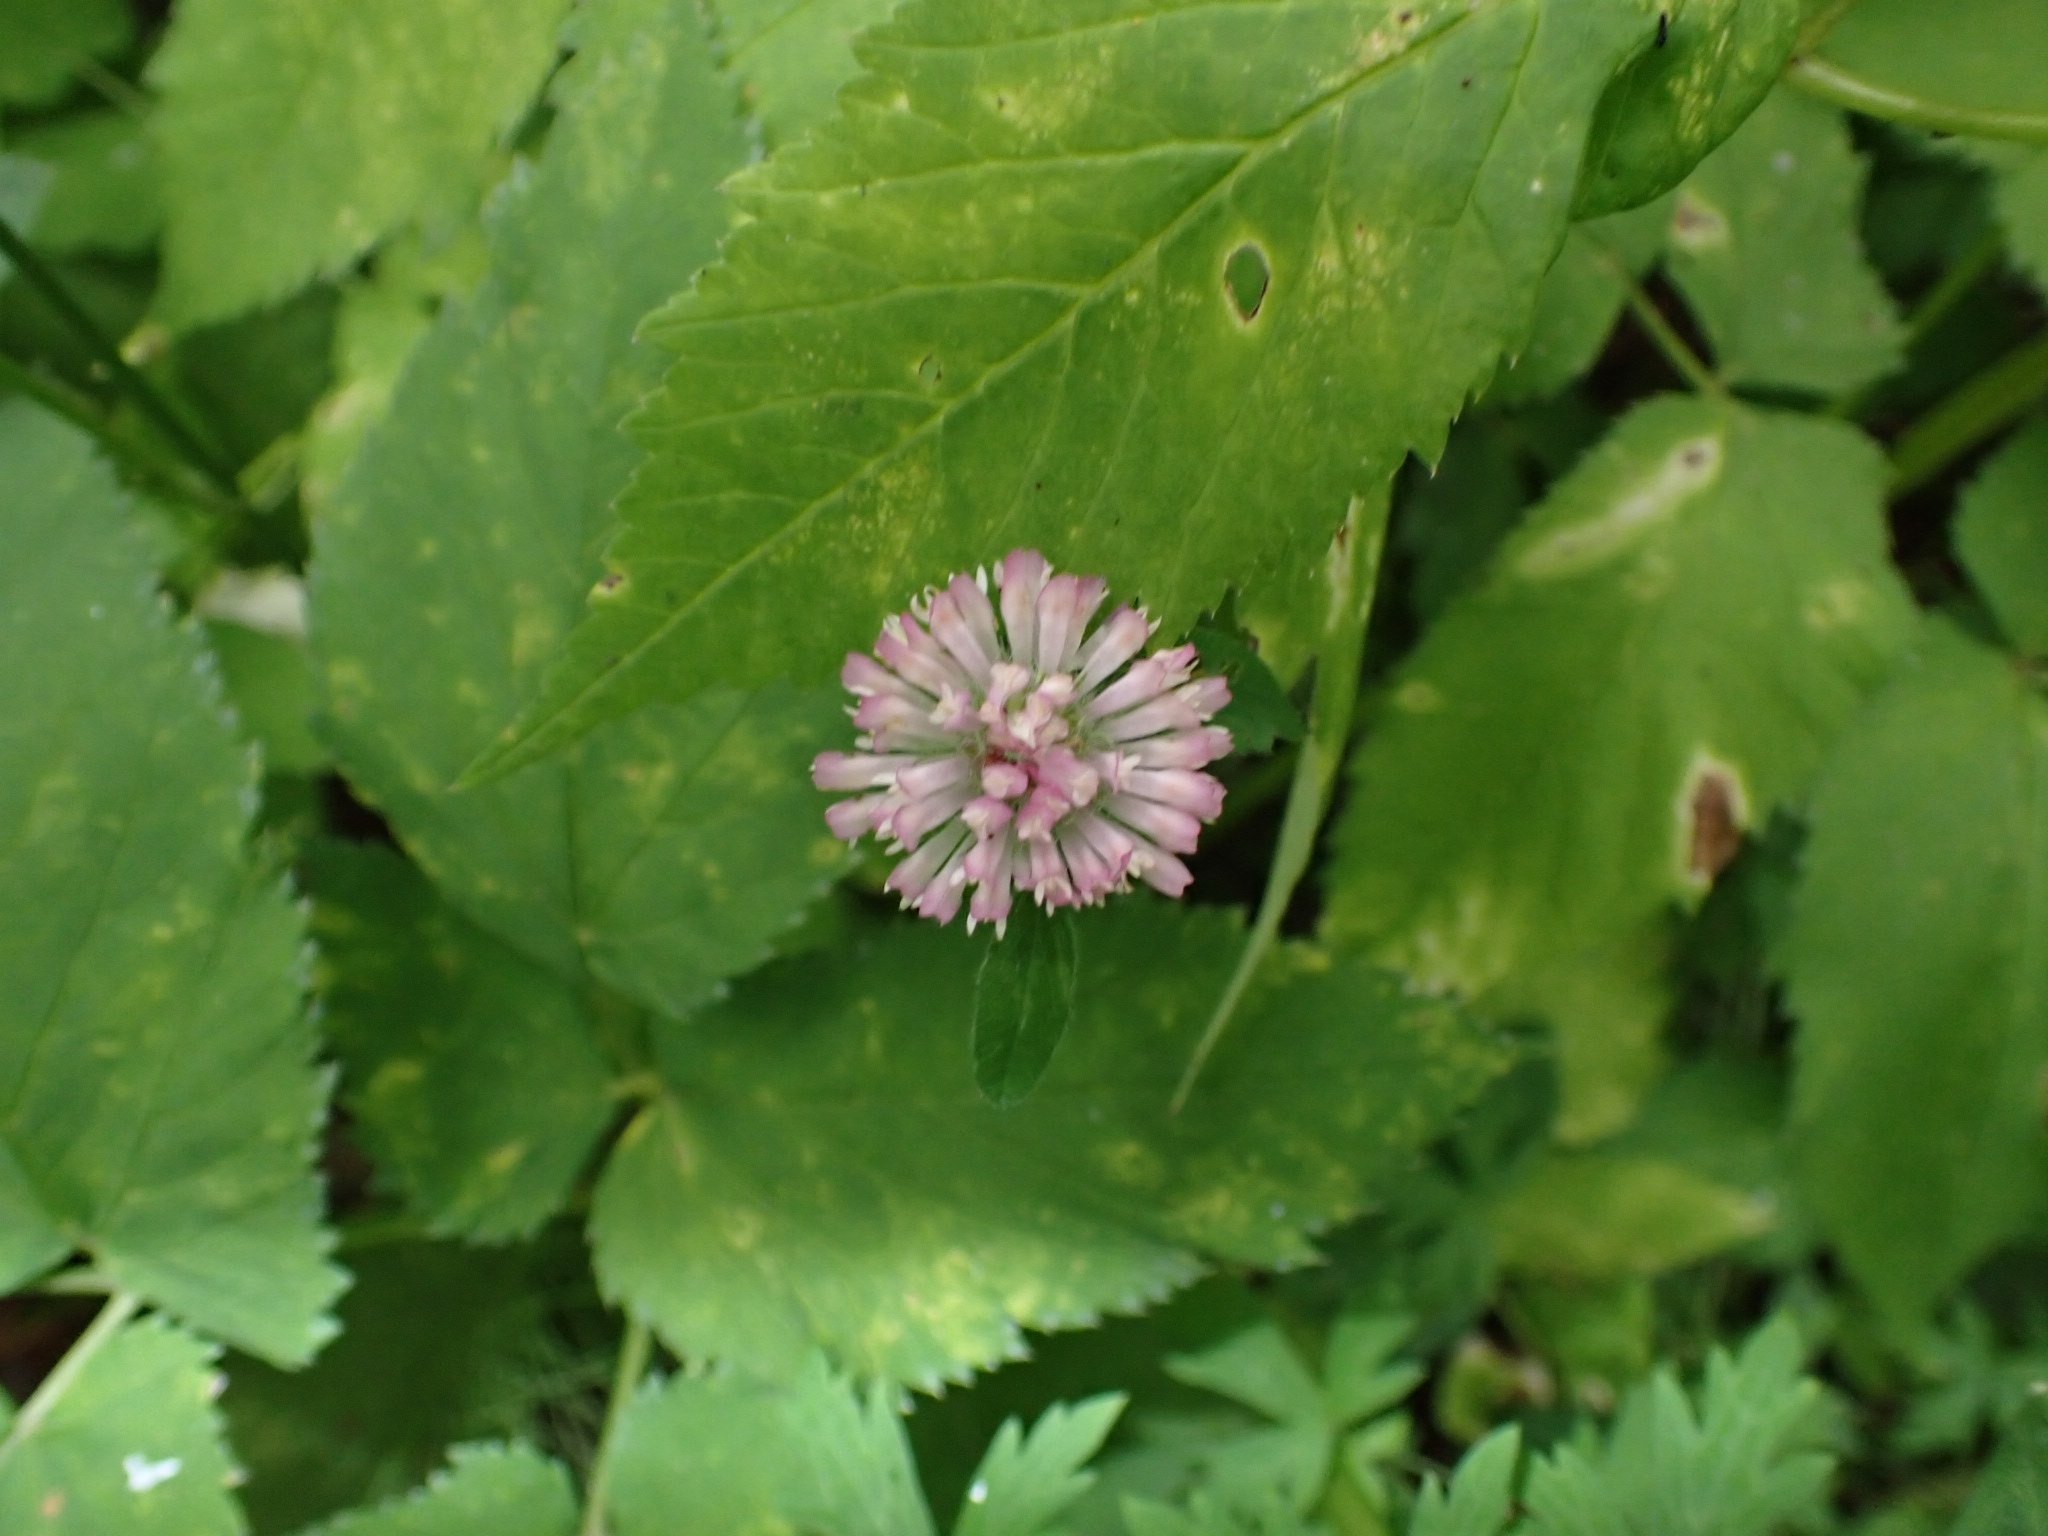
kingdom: Plantae
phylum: Tracheophyta
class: Magnoliopsida
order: Fabales
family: Fabaceae
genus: Trifolium
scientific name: Trifolium pratense
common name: Red clover
